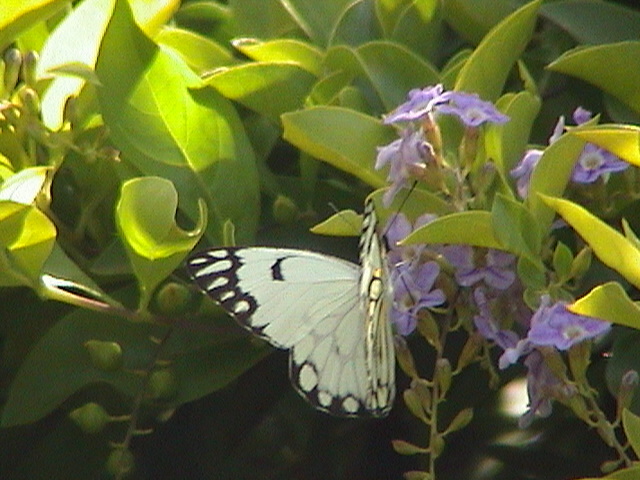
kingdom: Animalia
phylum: Arthropoda
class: Insecta
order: Lepidoptera
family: Pieridae
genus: Belenois
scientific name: Belenois aurota
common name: Brown-veined white
